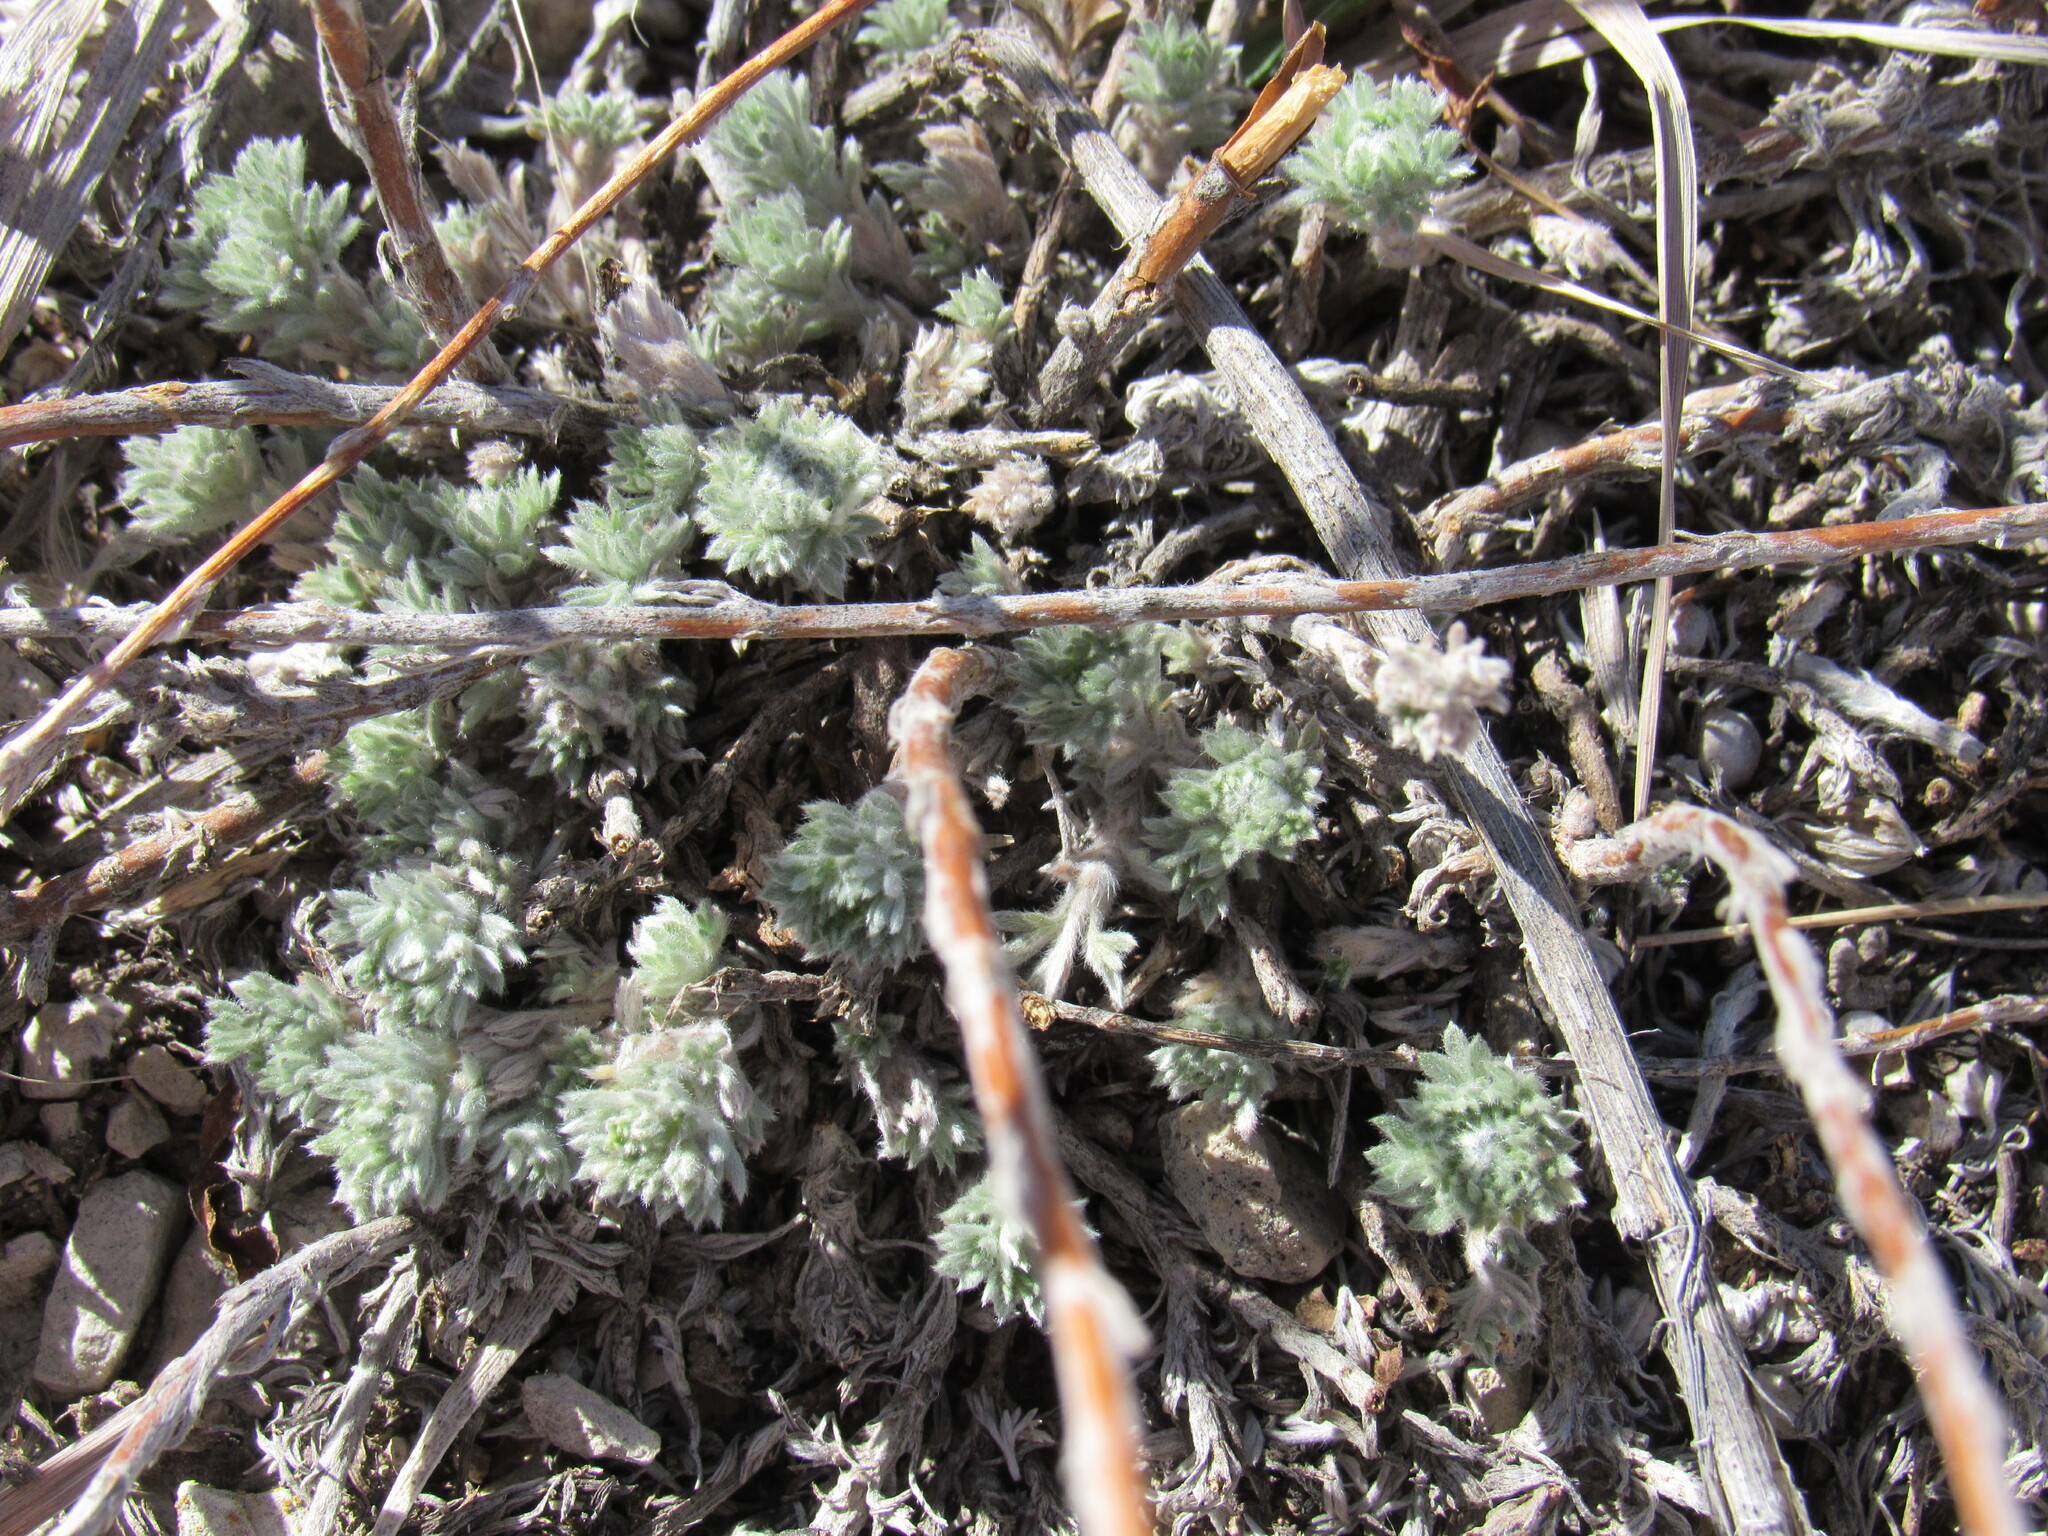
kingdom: Plantae
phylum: Tracheophyta
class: Magnoliopsida
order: Asterales
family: Asteraceae
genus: Artemisia
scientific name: Artemisia frigida
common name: Prairie sagewort
